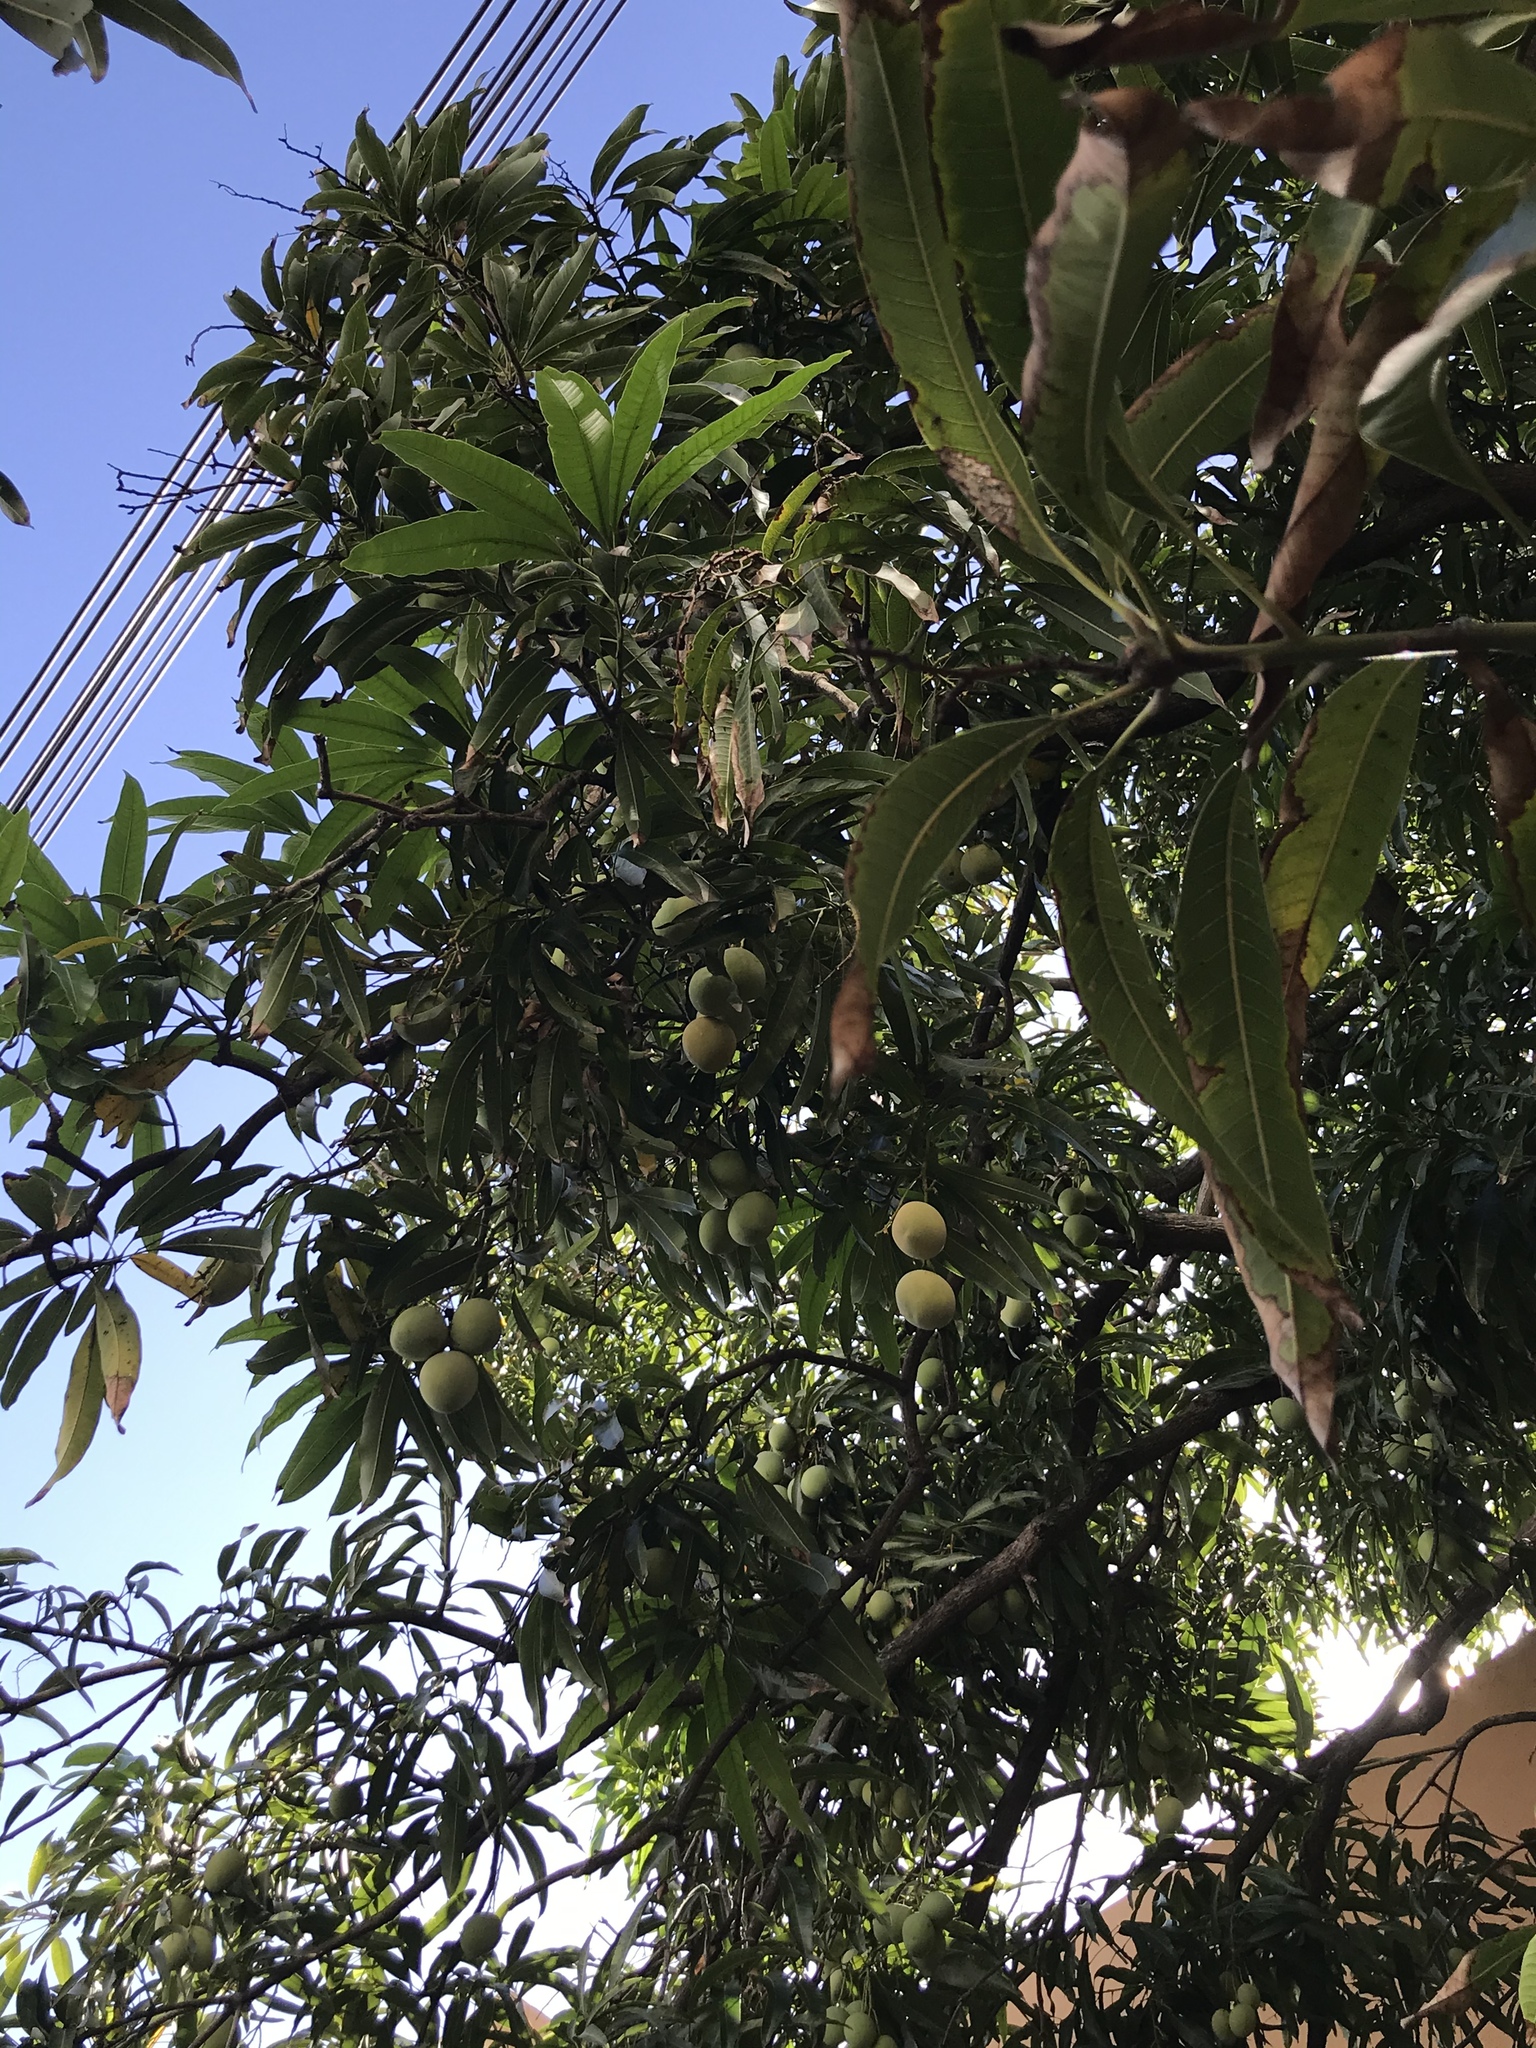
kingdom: Plantae
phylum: Tracheophyta
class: Magnoliopsida
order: Sapindales
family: Anacardiaceae
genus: Mangifera
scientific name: Mangifera indica
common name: Mango
